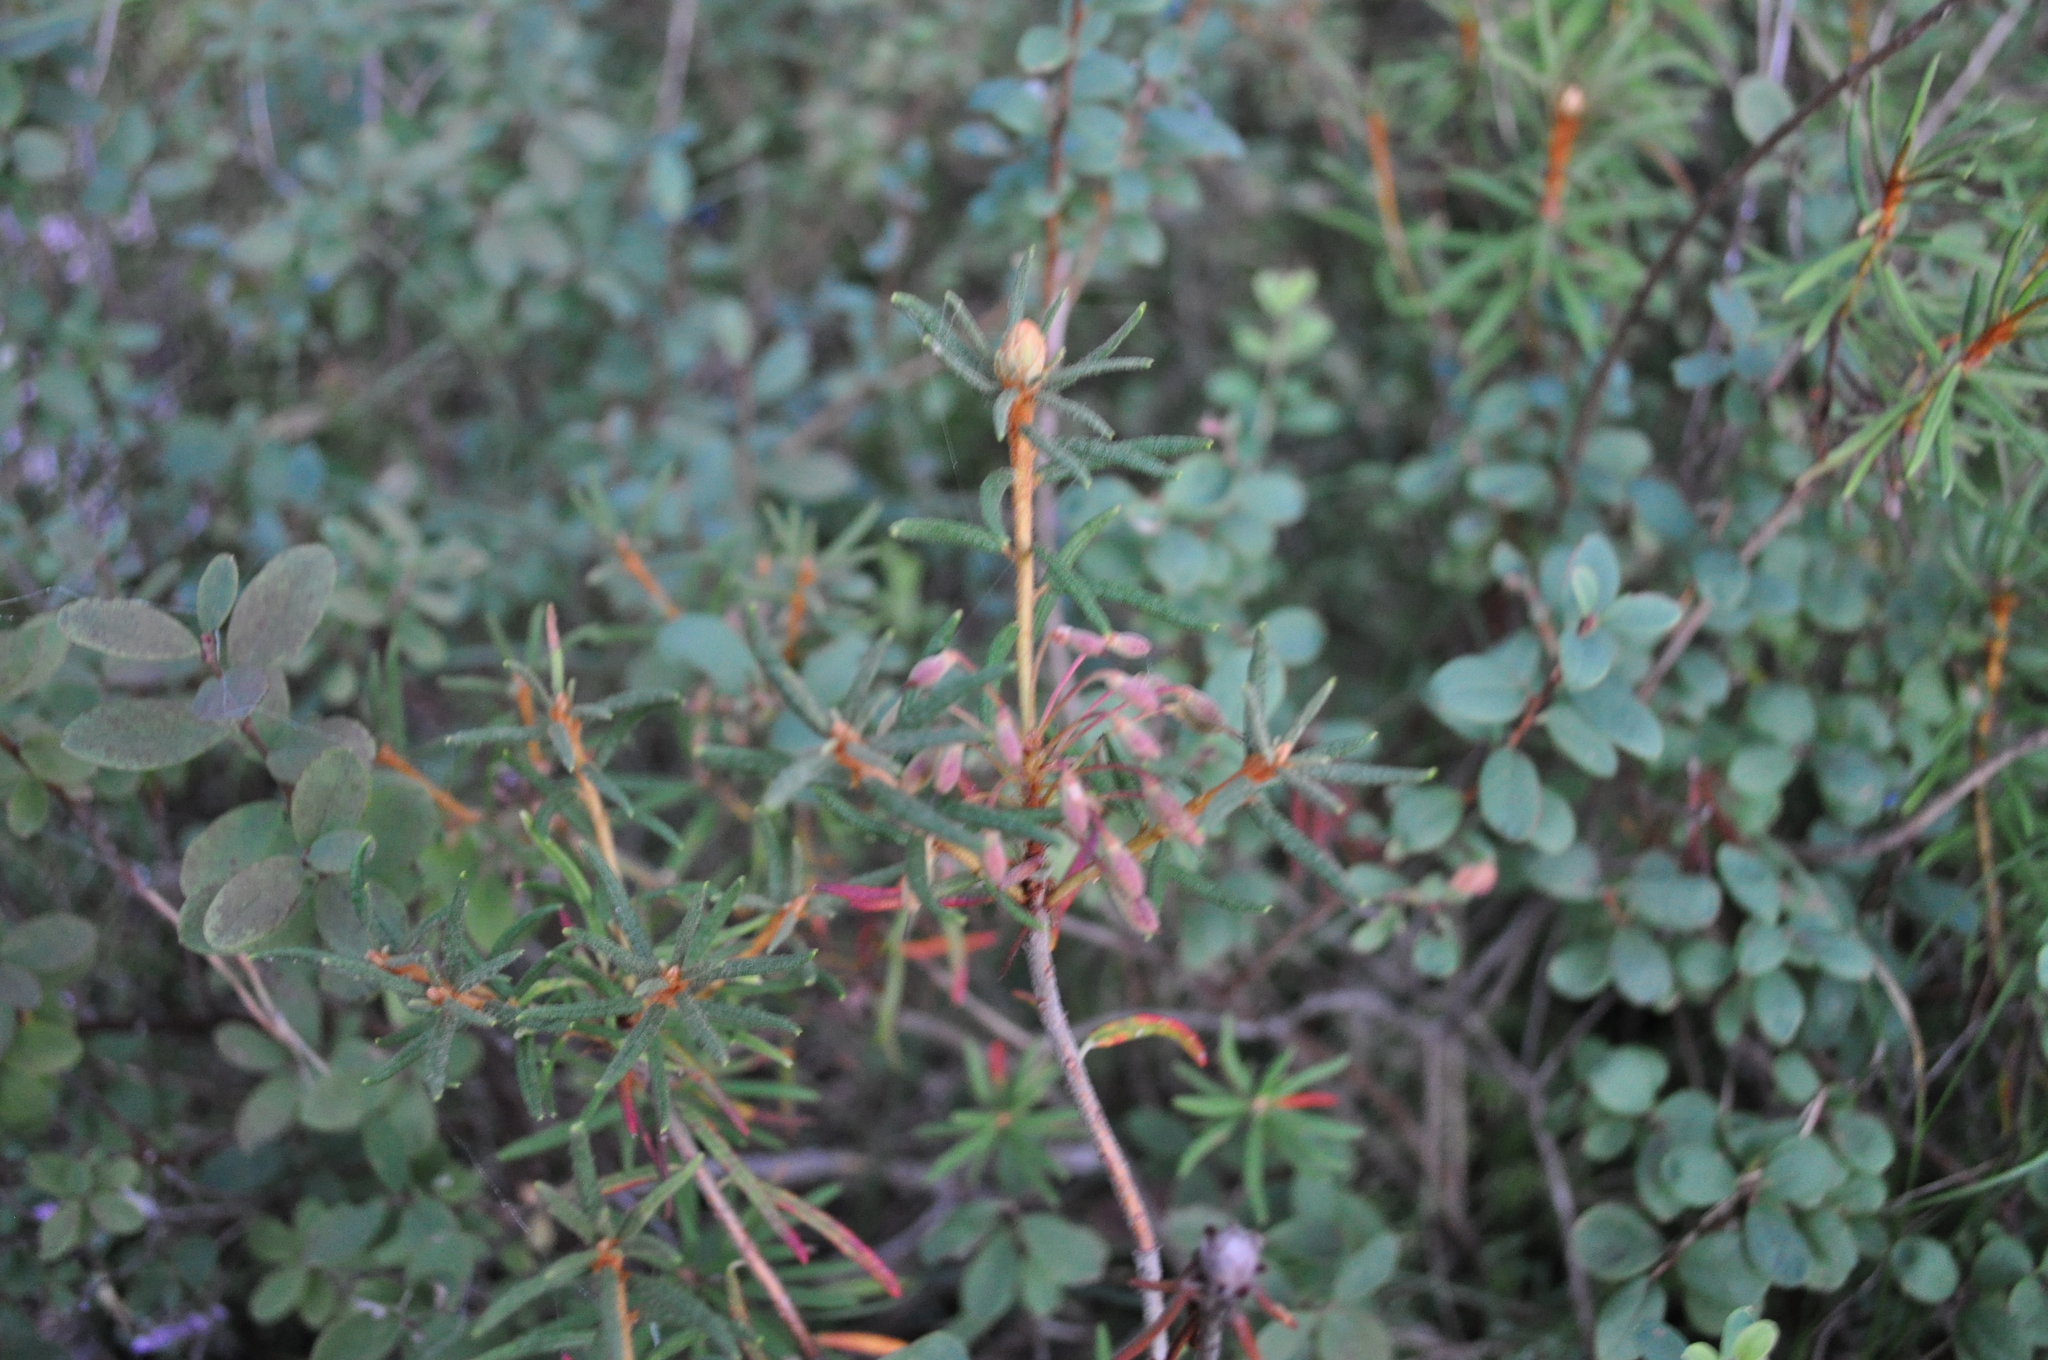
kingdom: Plantae
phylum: Tracheophyta
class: Magnoliopsida
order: Ericales
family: Ericaceae
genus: Rhododendron
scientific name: Rhododendron tomentosum
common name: Marsh labrador tea
